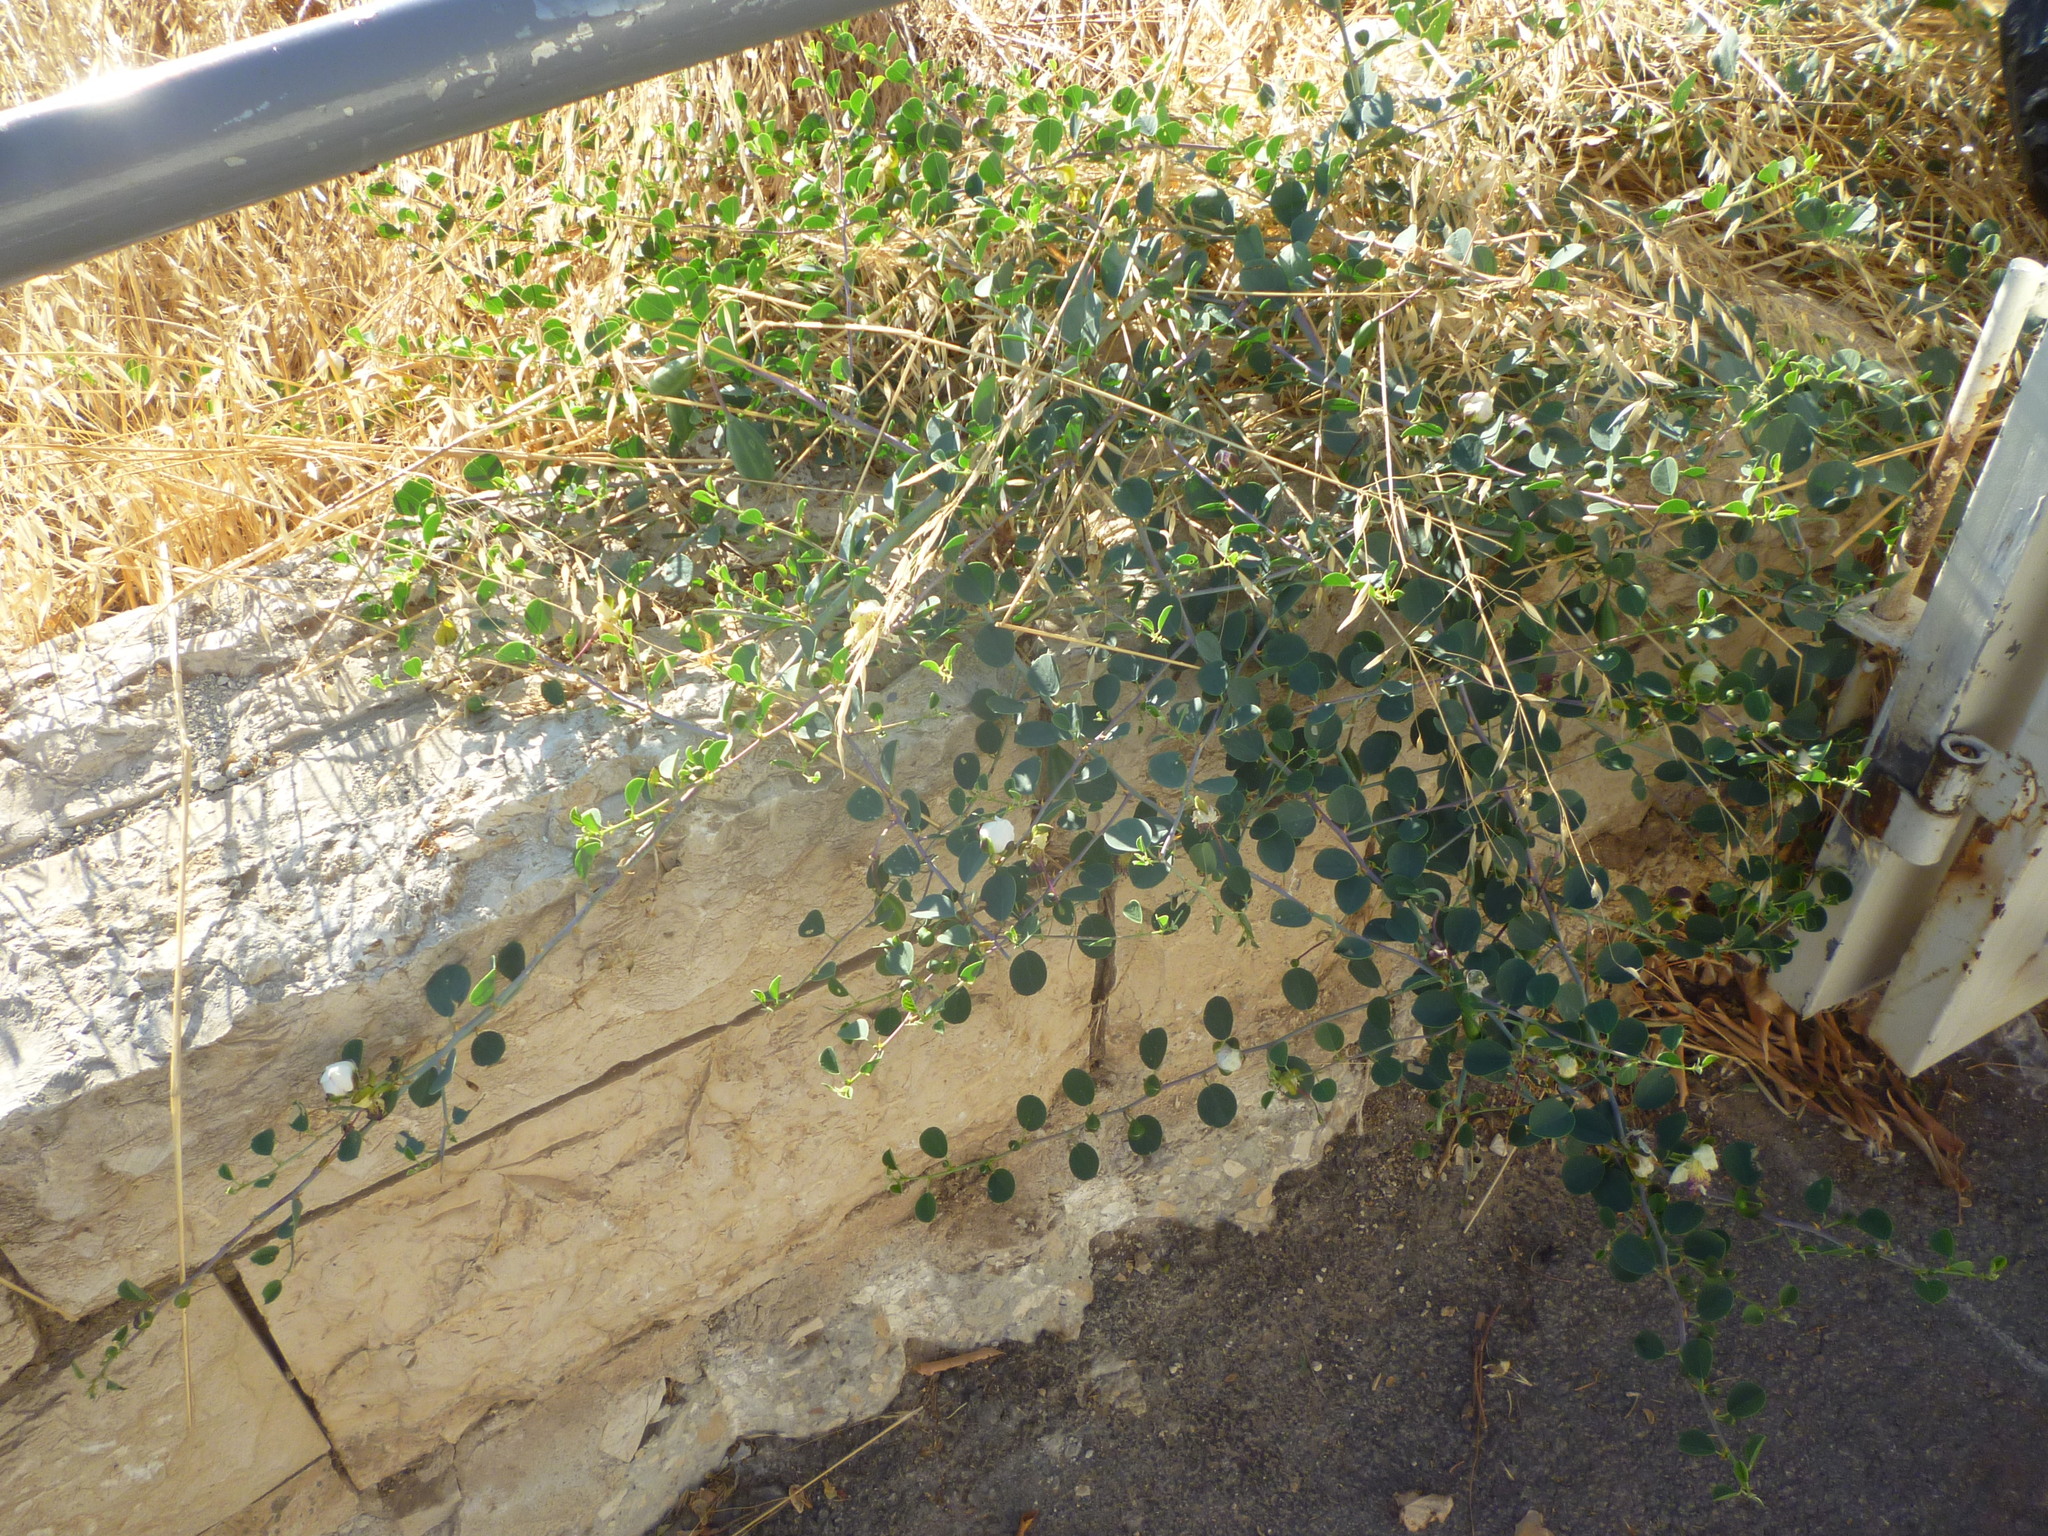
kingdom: Plantae
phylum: Tracheophyta
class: Magnoliopsida
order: Brassicales
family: Capparaceae
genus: Capparis
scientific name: Capparis spinosa
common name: Caper
